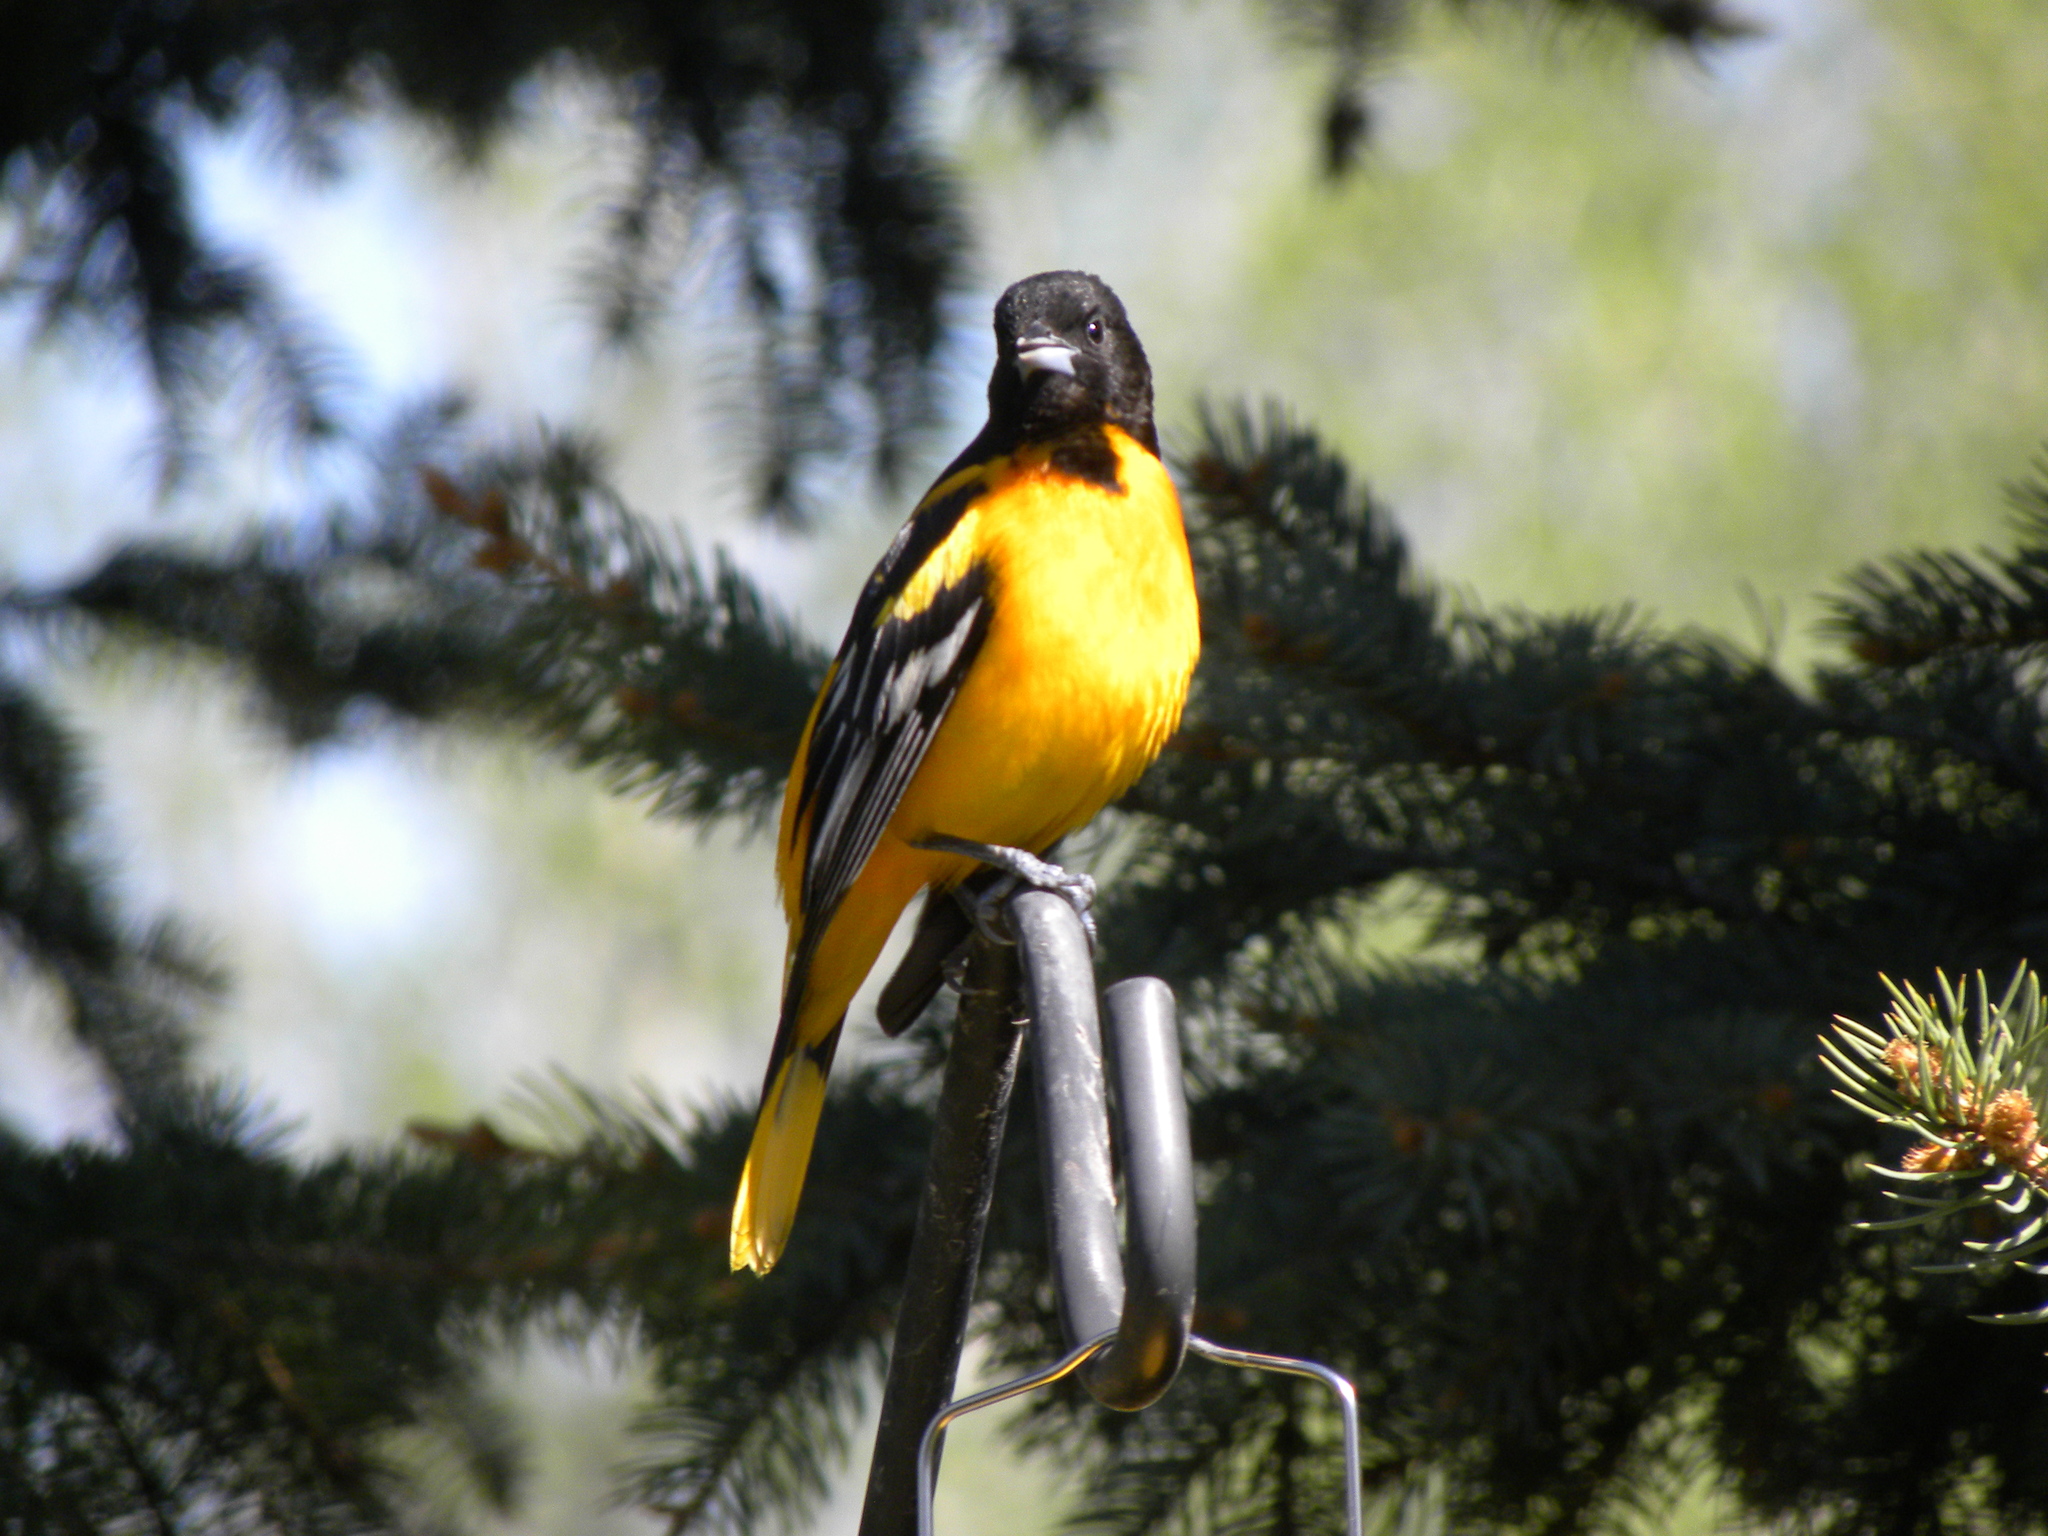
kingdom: Animalia
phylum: Chordata
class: Aves
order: Passeriformes
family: Icteridae
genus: Icterus
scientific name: Icterus galbula
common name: Baltimore oriole
